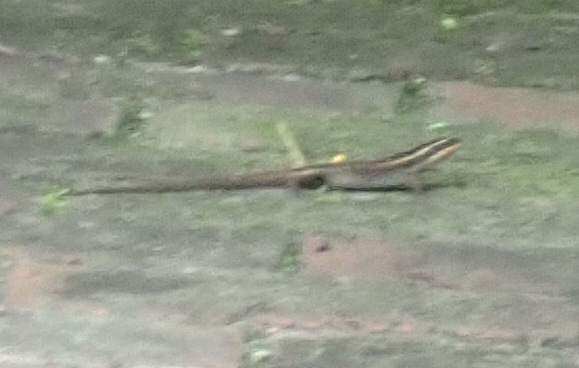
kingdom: Animalia
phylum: Chordata
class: Squamata
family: Scincidae
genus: Trachylepis
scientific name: Trachylepis punctatissima
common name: Montane speckled skink
